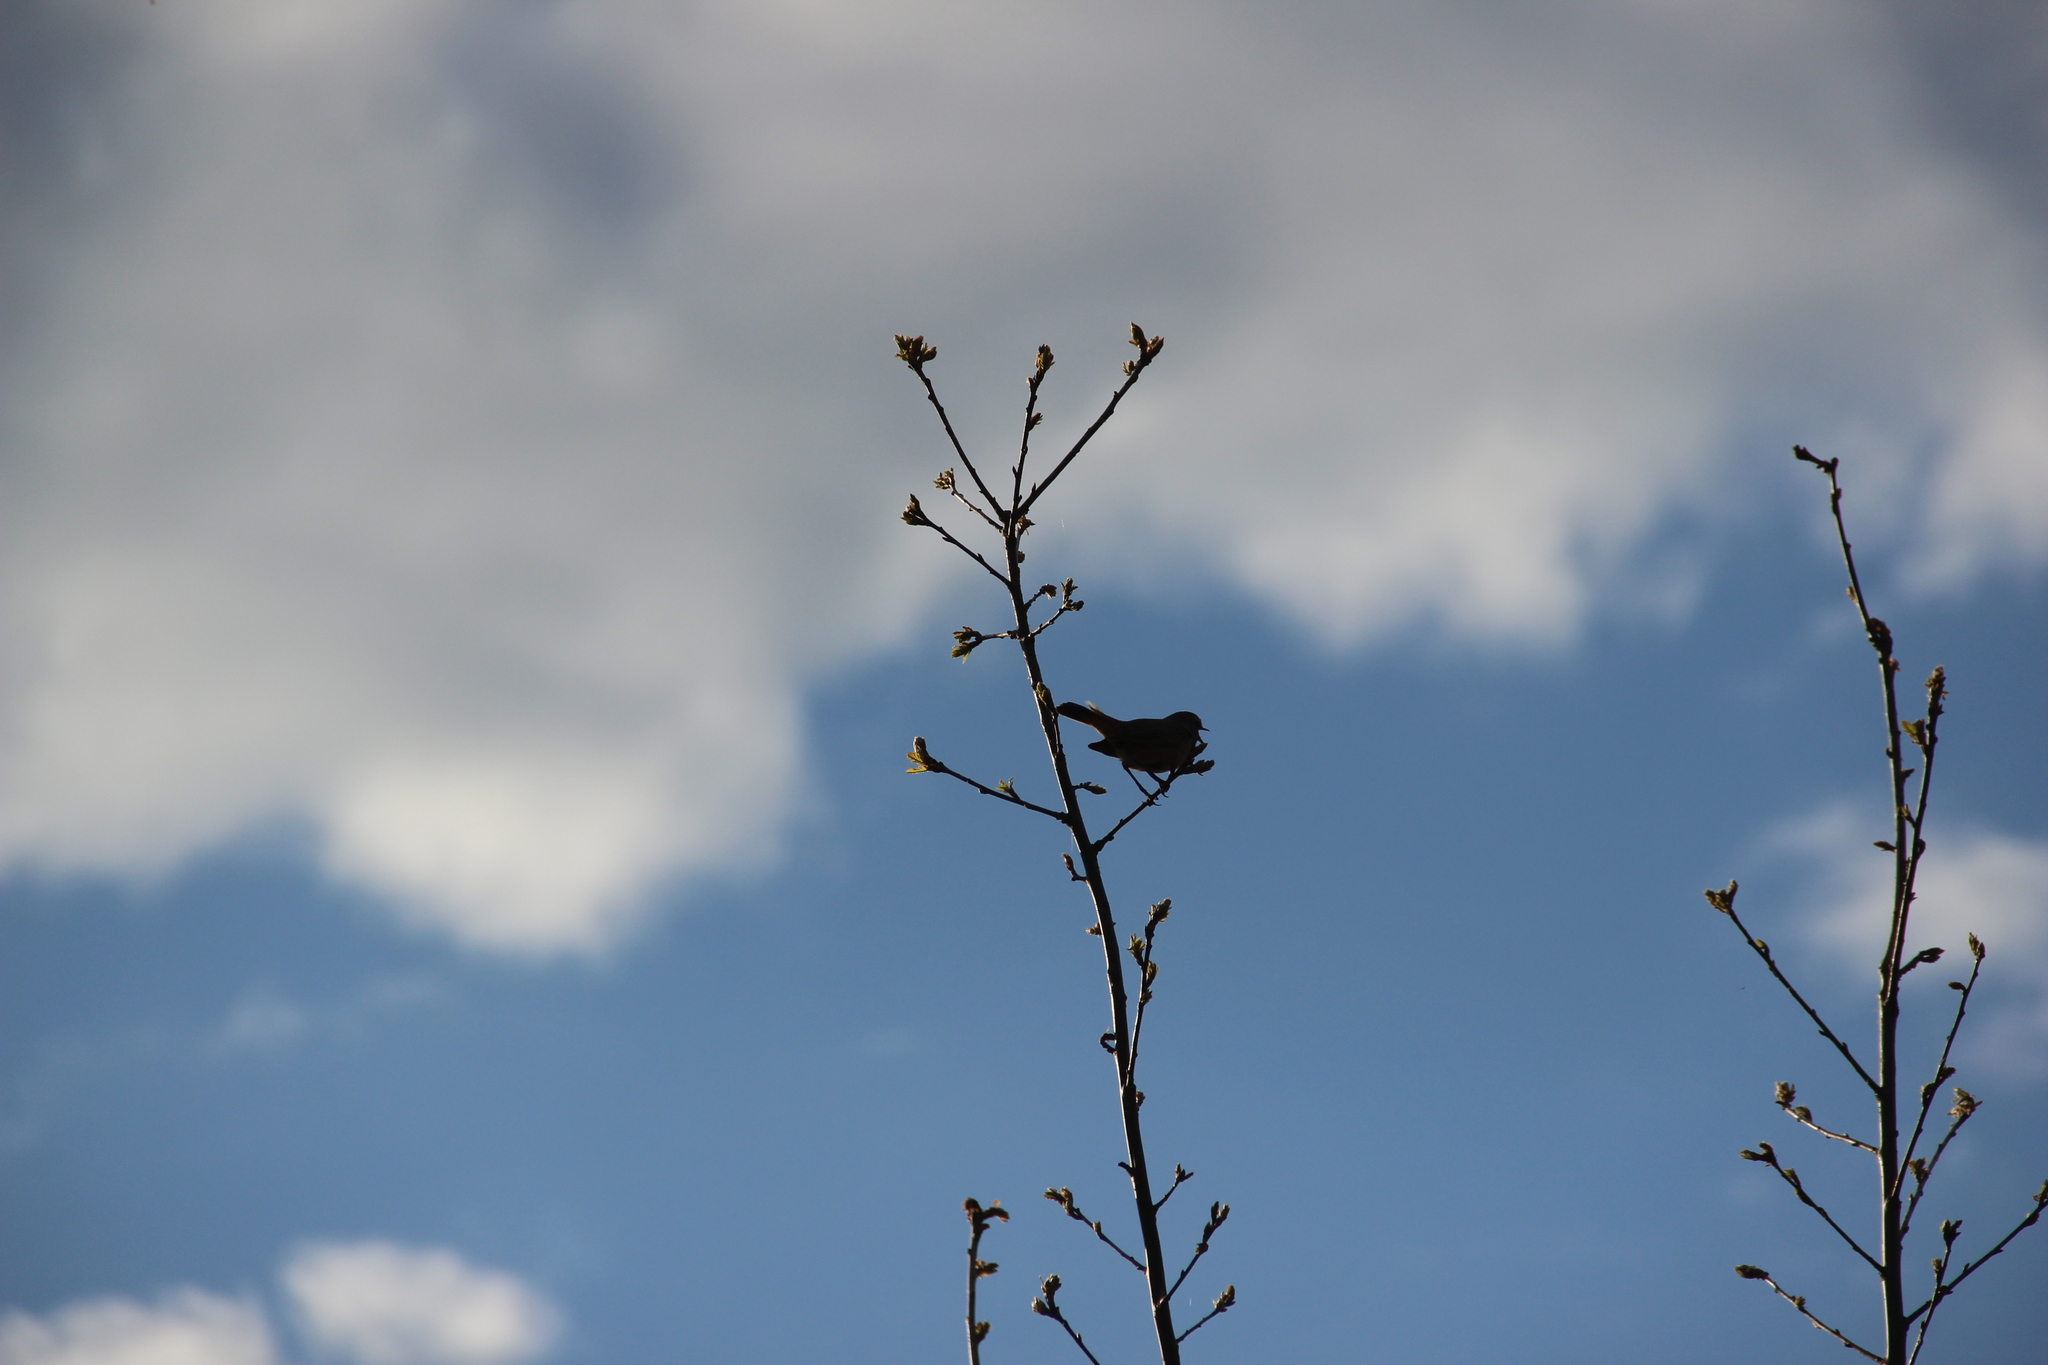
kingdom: Animalia
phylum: Chordata
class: Aves
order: Passeriformes
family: Muscicapidae
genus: Luscinia
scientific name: Luscinia svecica
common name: Bluethroat
